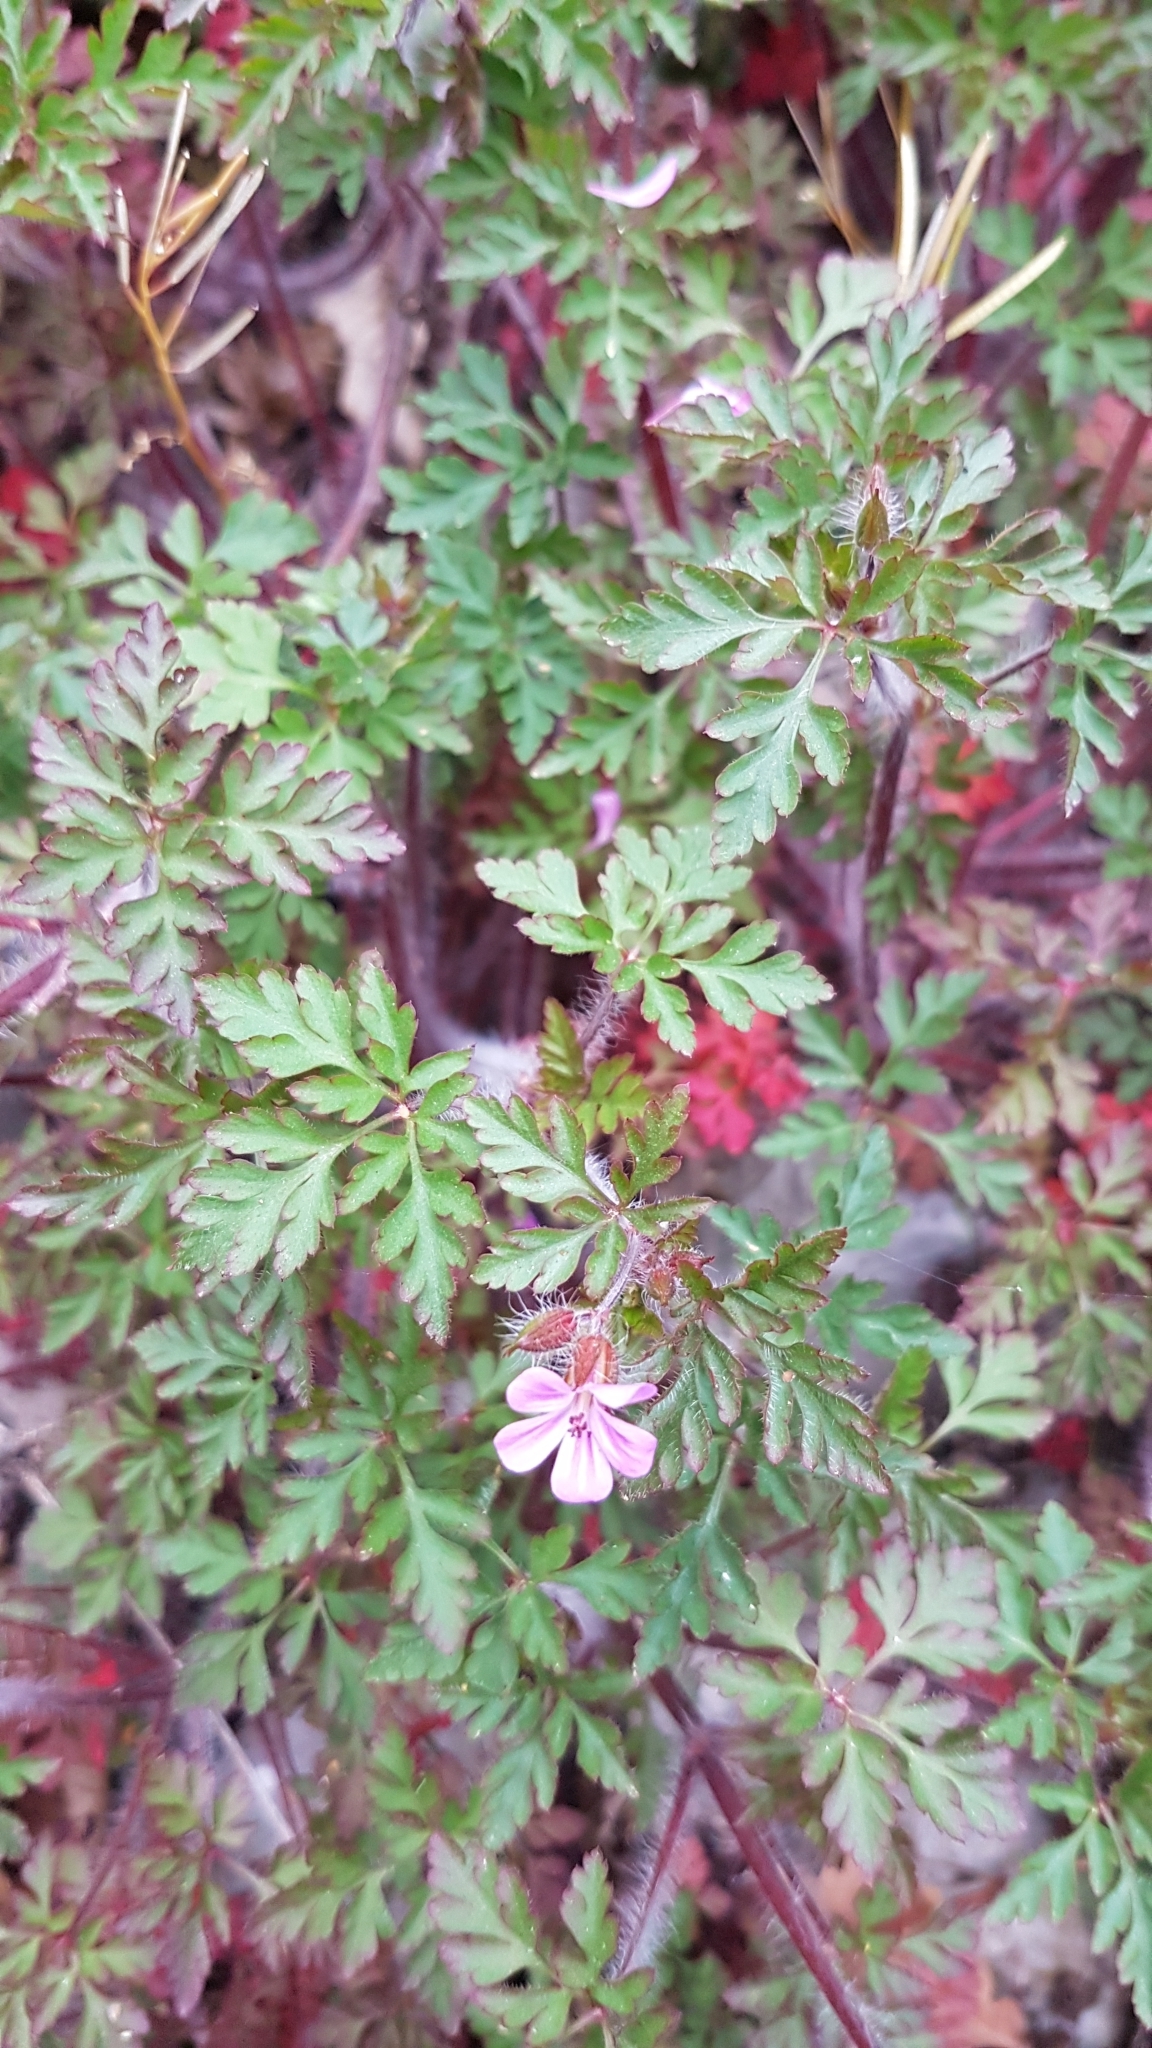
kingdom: Plantae
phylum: Tracheophyta
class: Magnoliopsida
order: Geraniales
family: Geraniaceae
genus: Geranium
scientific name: Geranium robertianum
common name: Herb-robert
